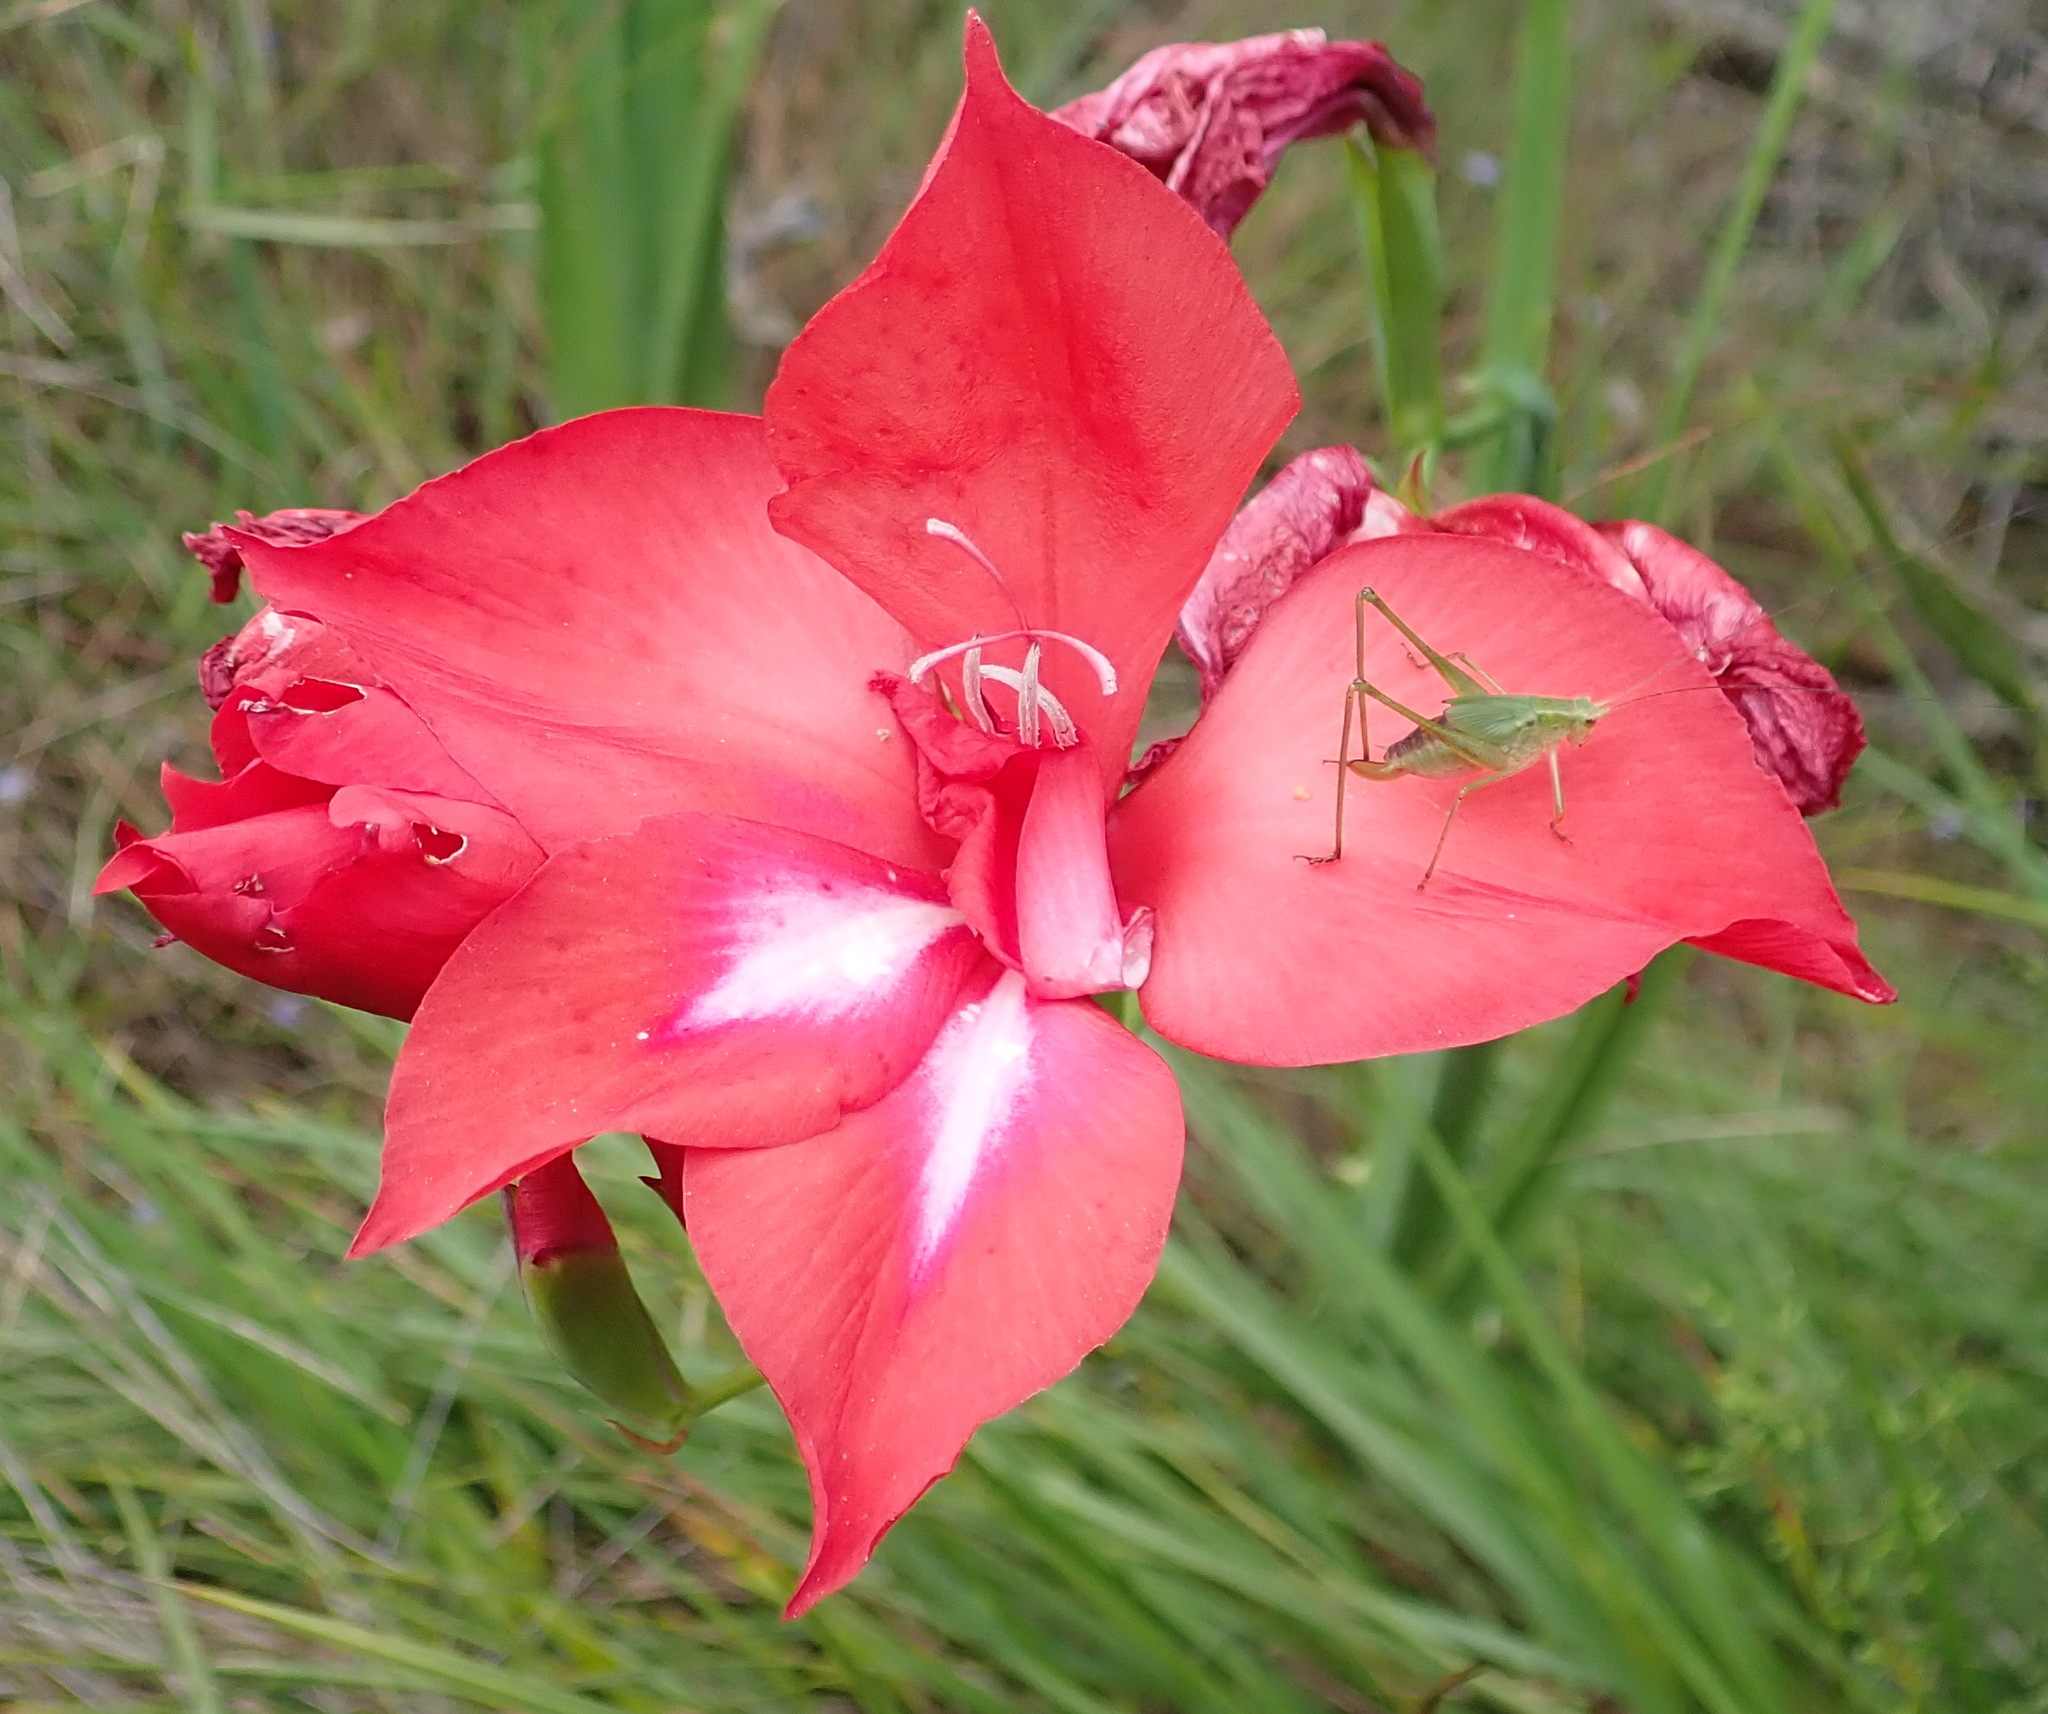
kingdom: Plantae
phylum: Tracheophyta
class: Liliopsida
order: Asparagales
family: Iridaceae
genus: Gladiolus
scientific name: Gladiolus sempervirens
